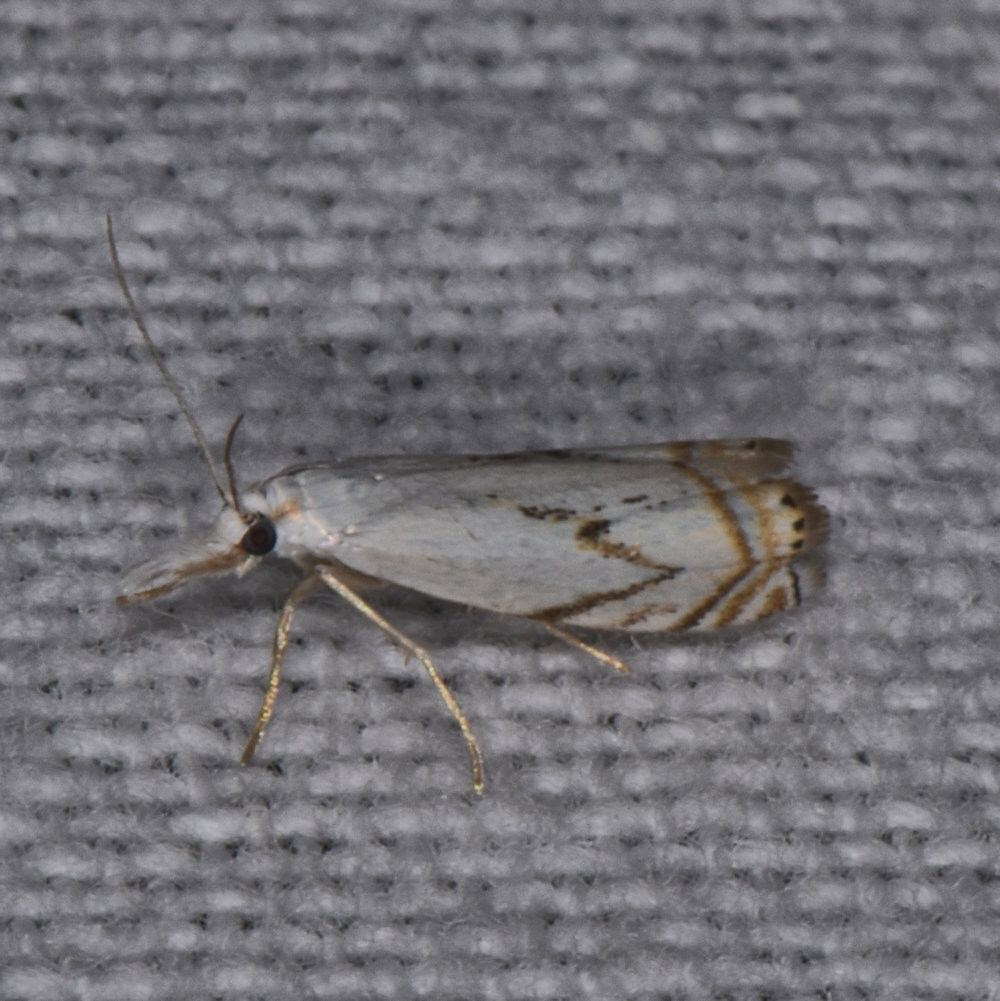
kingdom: Animalia
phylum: Arthropoda
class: Insecta
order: Lepidoptera
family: Crambidae
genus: Crambus
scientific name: Crambus albellus
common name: Small white grass-veneer
